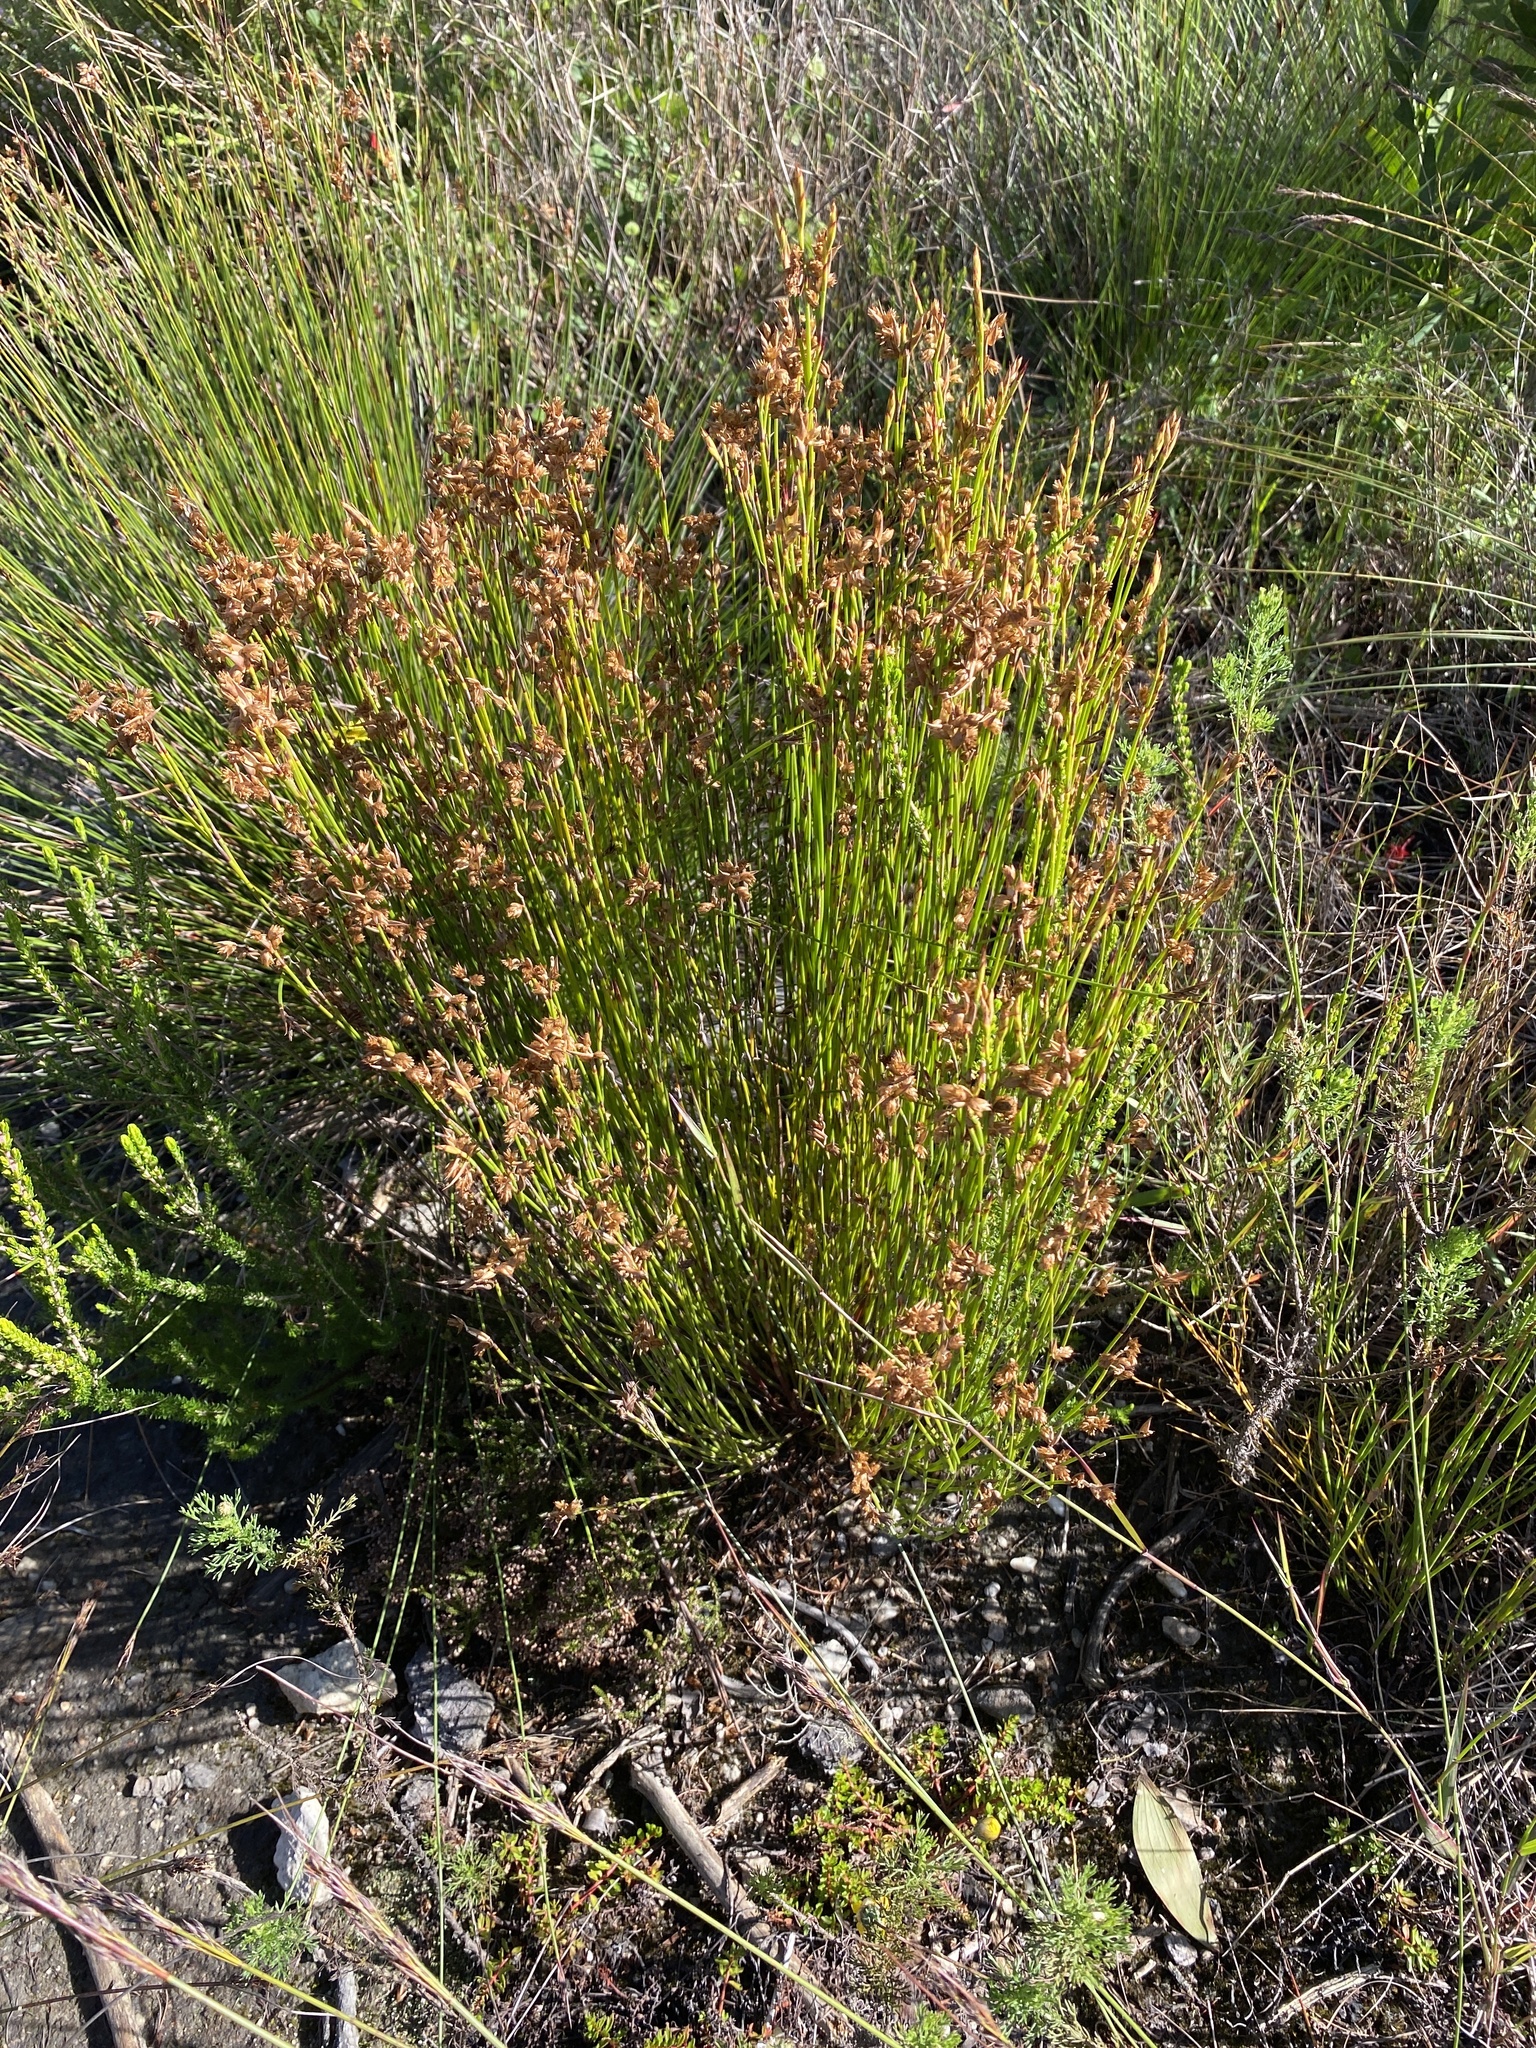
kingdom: Plantae
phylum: Tracheophyta
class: Liliopsida
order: Poales
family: Restionaceae
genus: Mastersiella
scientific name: Mastersiella spathulata
